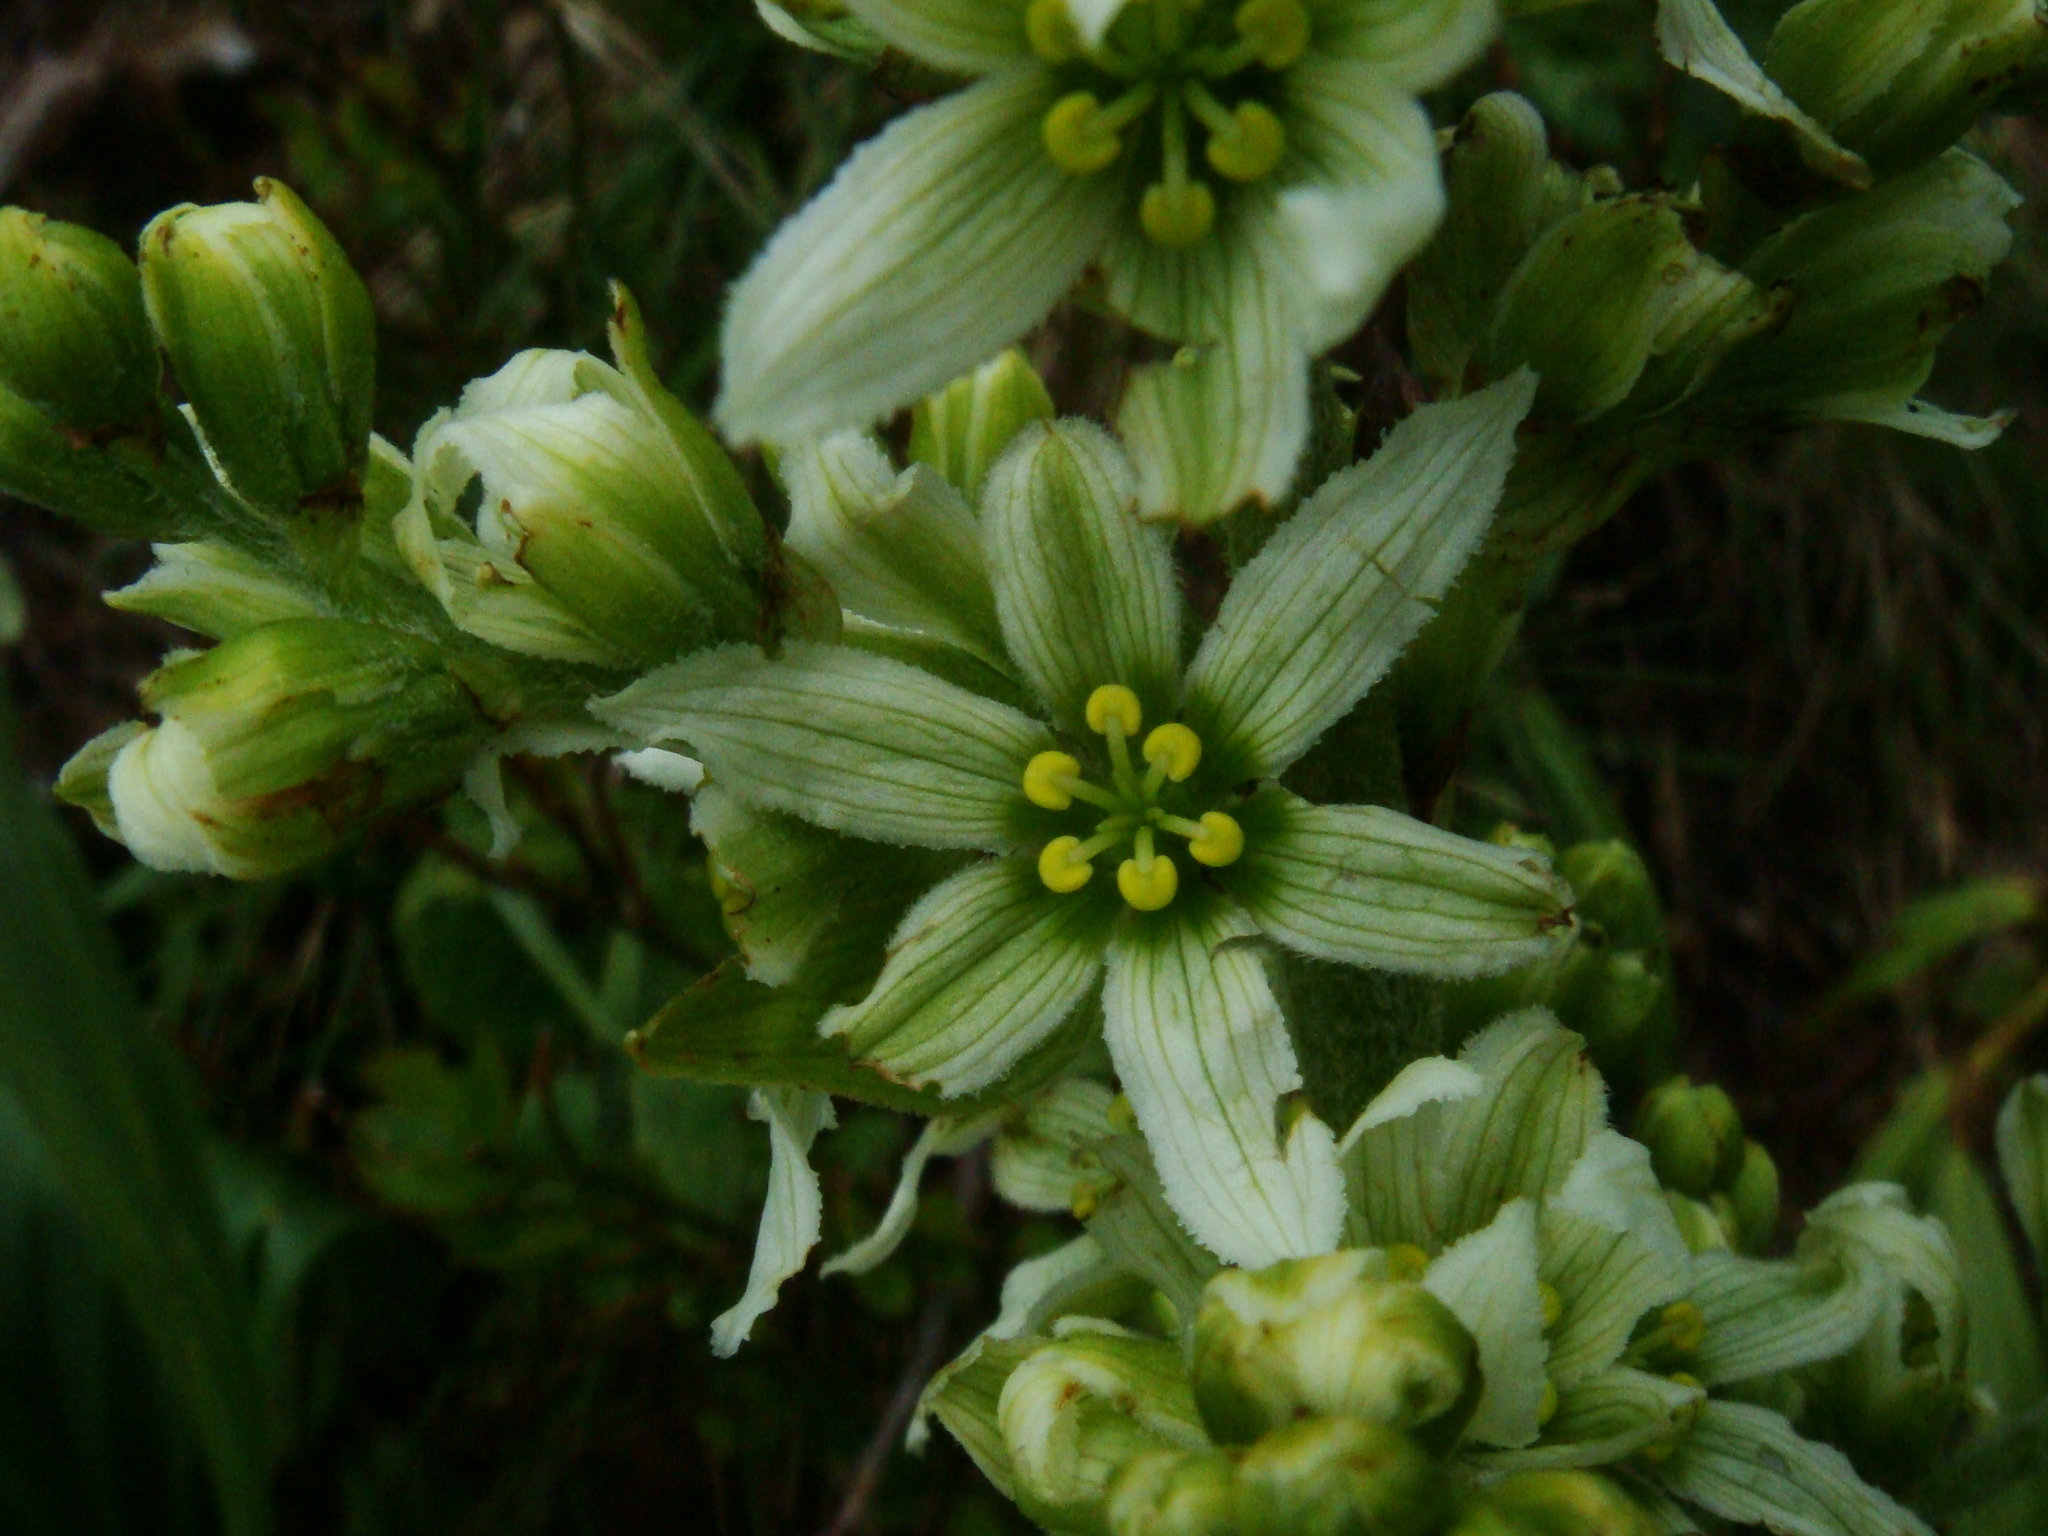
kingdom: Plantae
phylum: Tracheophyta
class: Liliopsida
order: Liliales
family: Melanthiaceae
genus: Veratrum
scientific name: Veratrum album
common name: White veratrum
